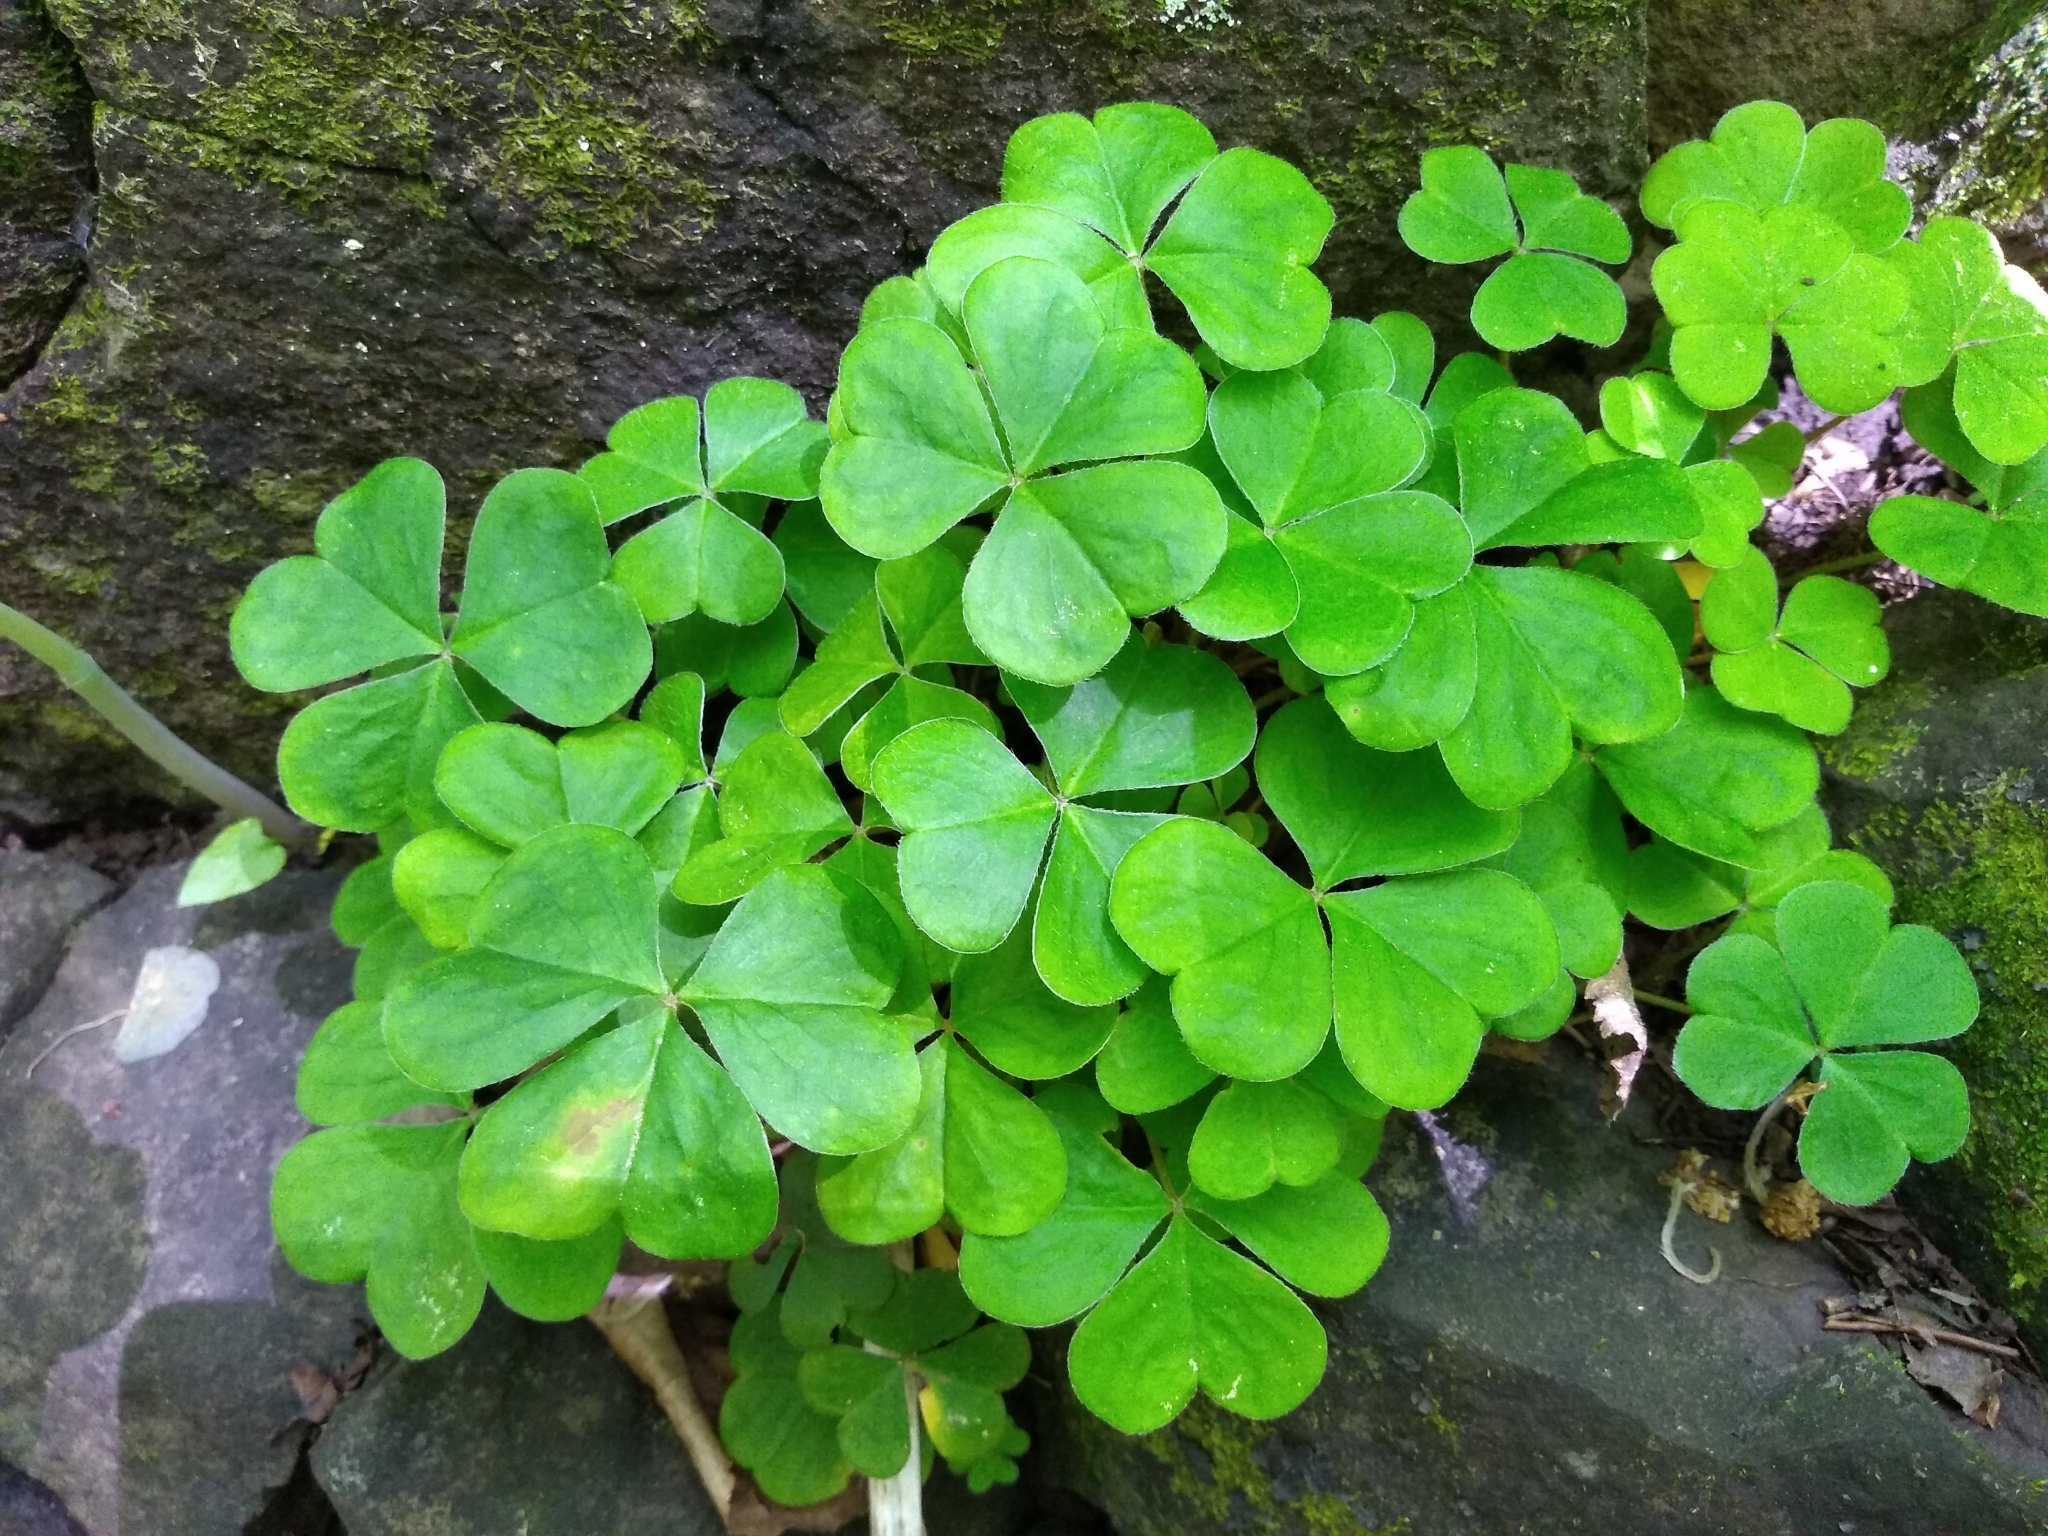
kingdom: Plantae
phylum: Tracheophyta
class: Magnoliopsida
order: Oxalidales
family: Oxalidaceae
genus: Oxalis
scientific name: Oxalis montana
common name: American wood-sorrel
